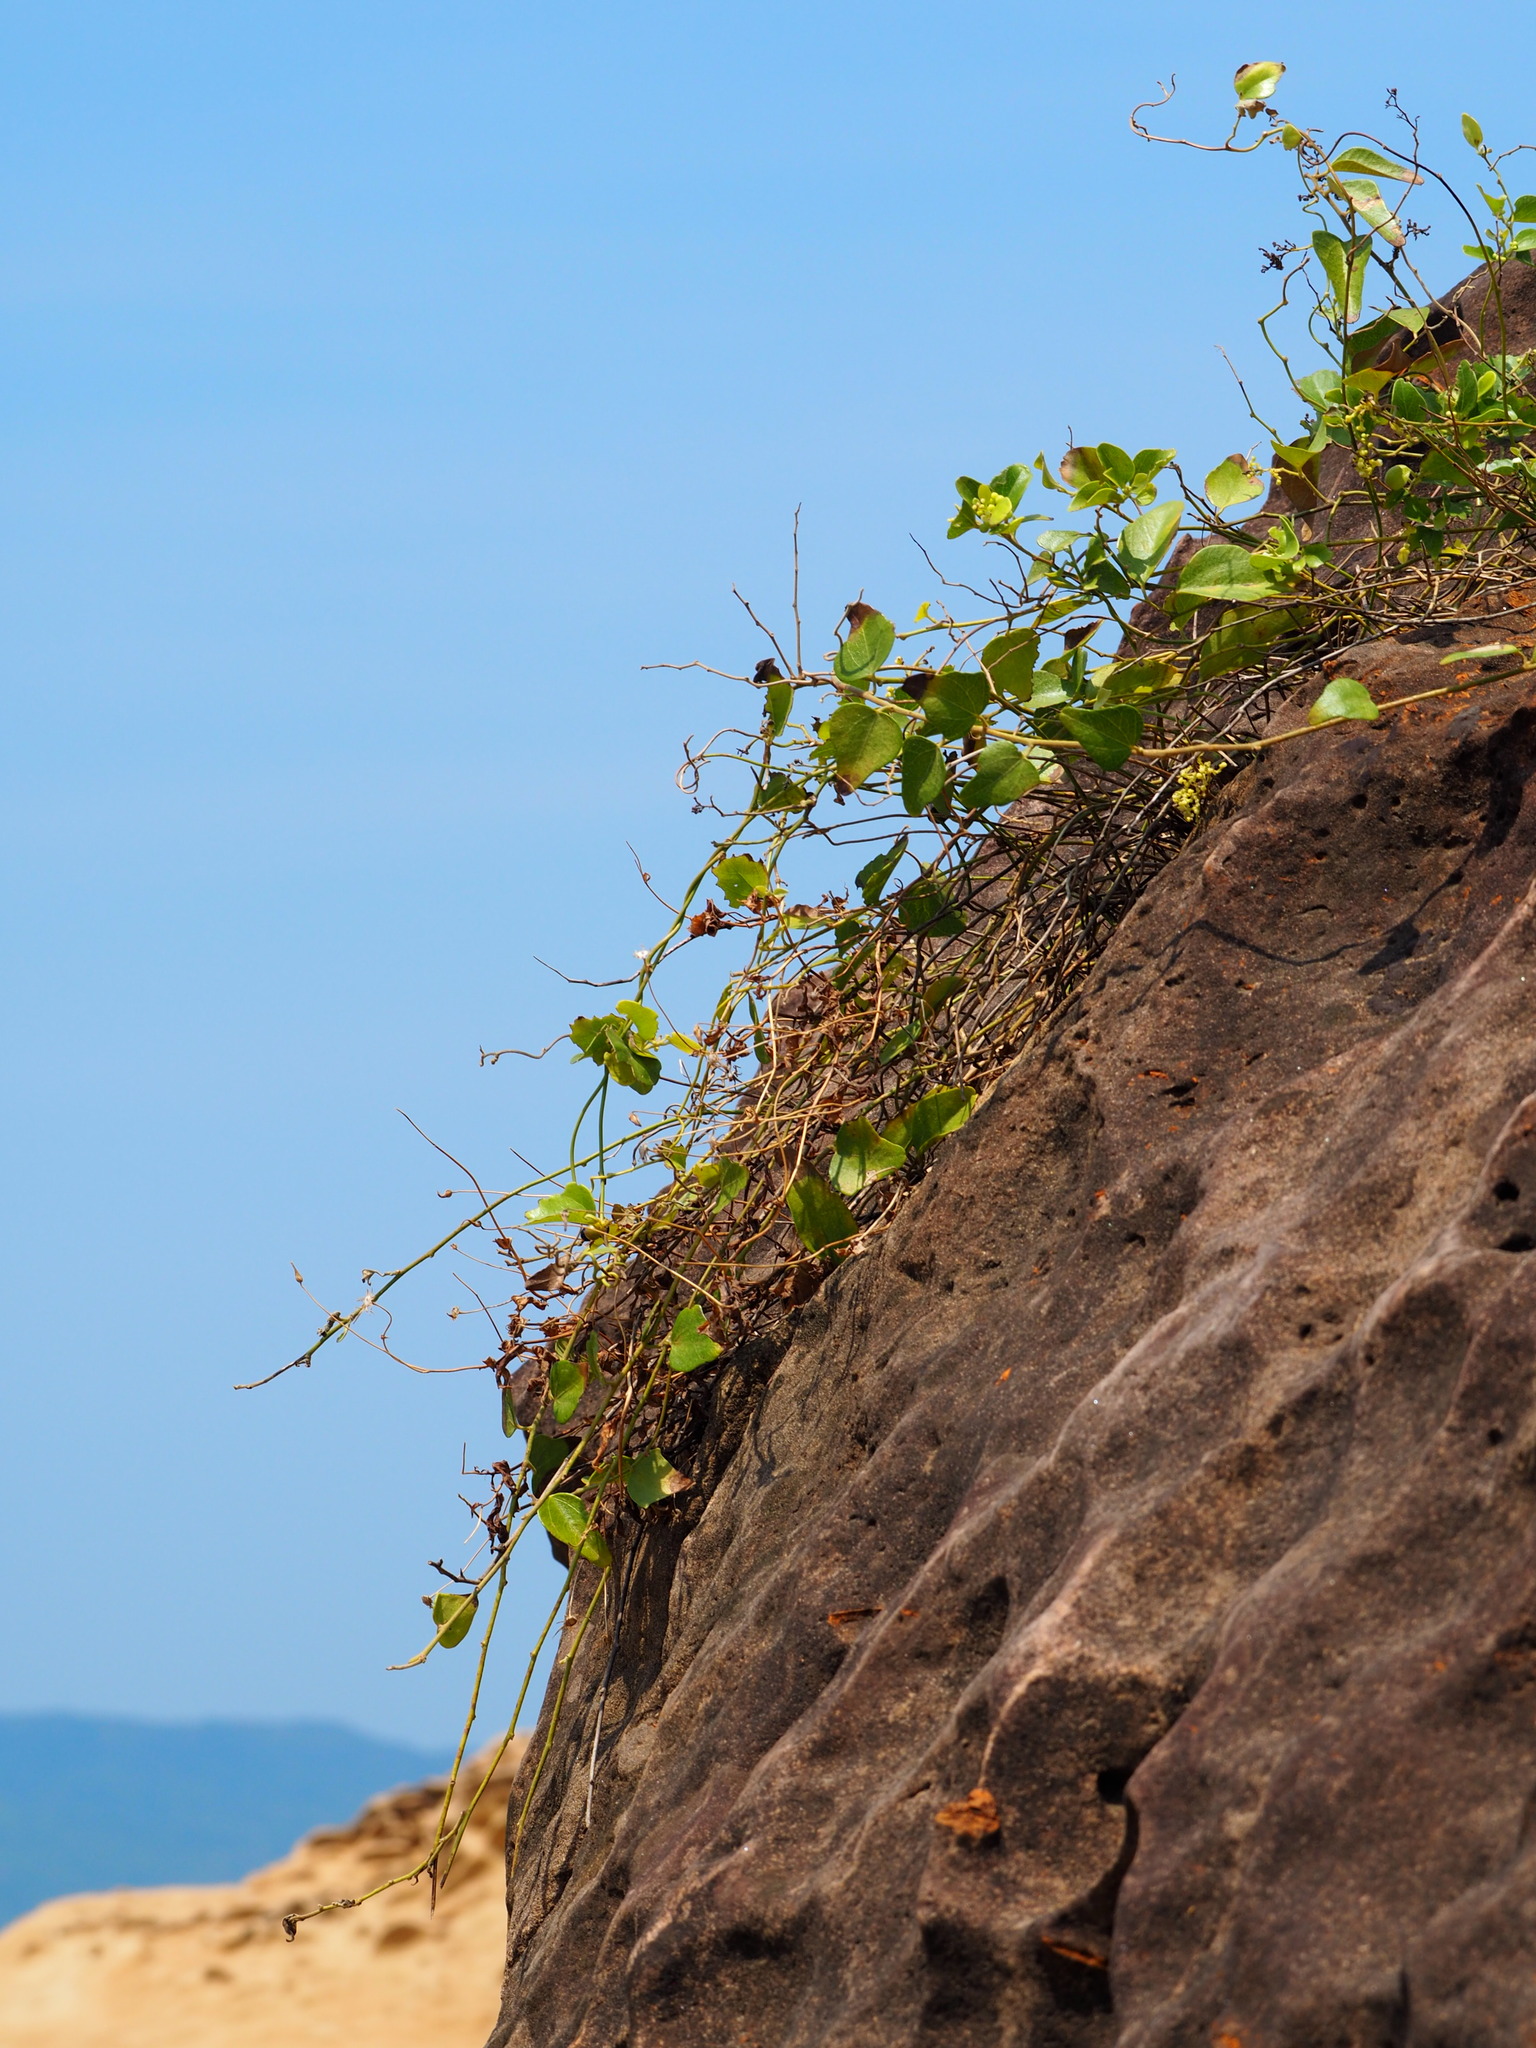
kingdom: Plantae
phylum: Tracheophyta
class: Magnoliopsida
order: Ranunculales
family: Menispermaceae
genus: Cocculus
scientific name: Cocculus orbiculatus
